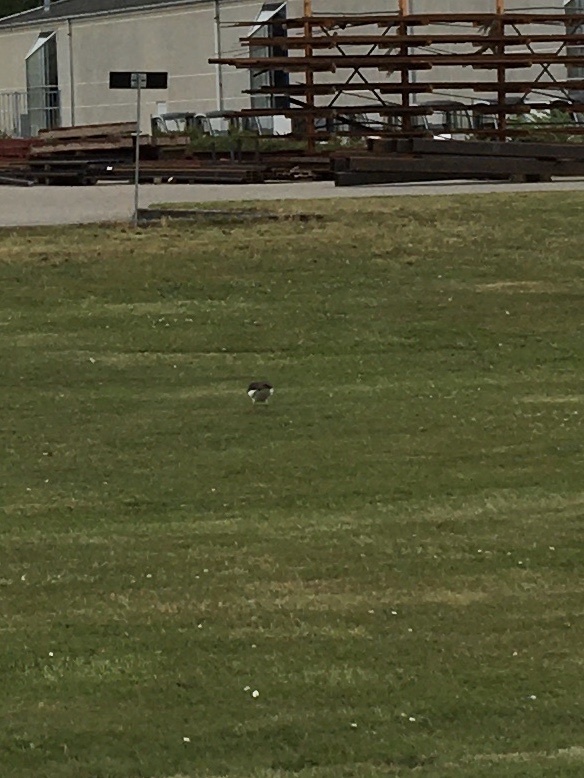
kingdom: Animalia
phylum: Chordata
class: Aves
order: Charadriiformes
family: Haematopodidae
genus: Haematopus
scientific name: Haematopus ostralegus
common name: Eurasian oystercatcher
